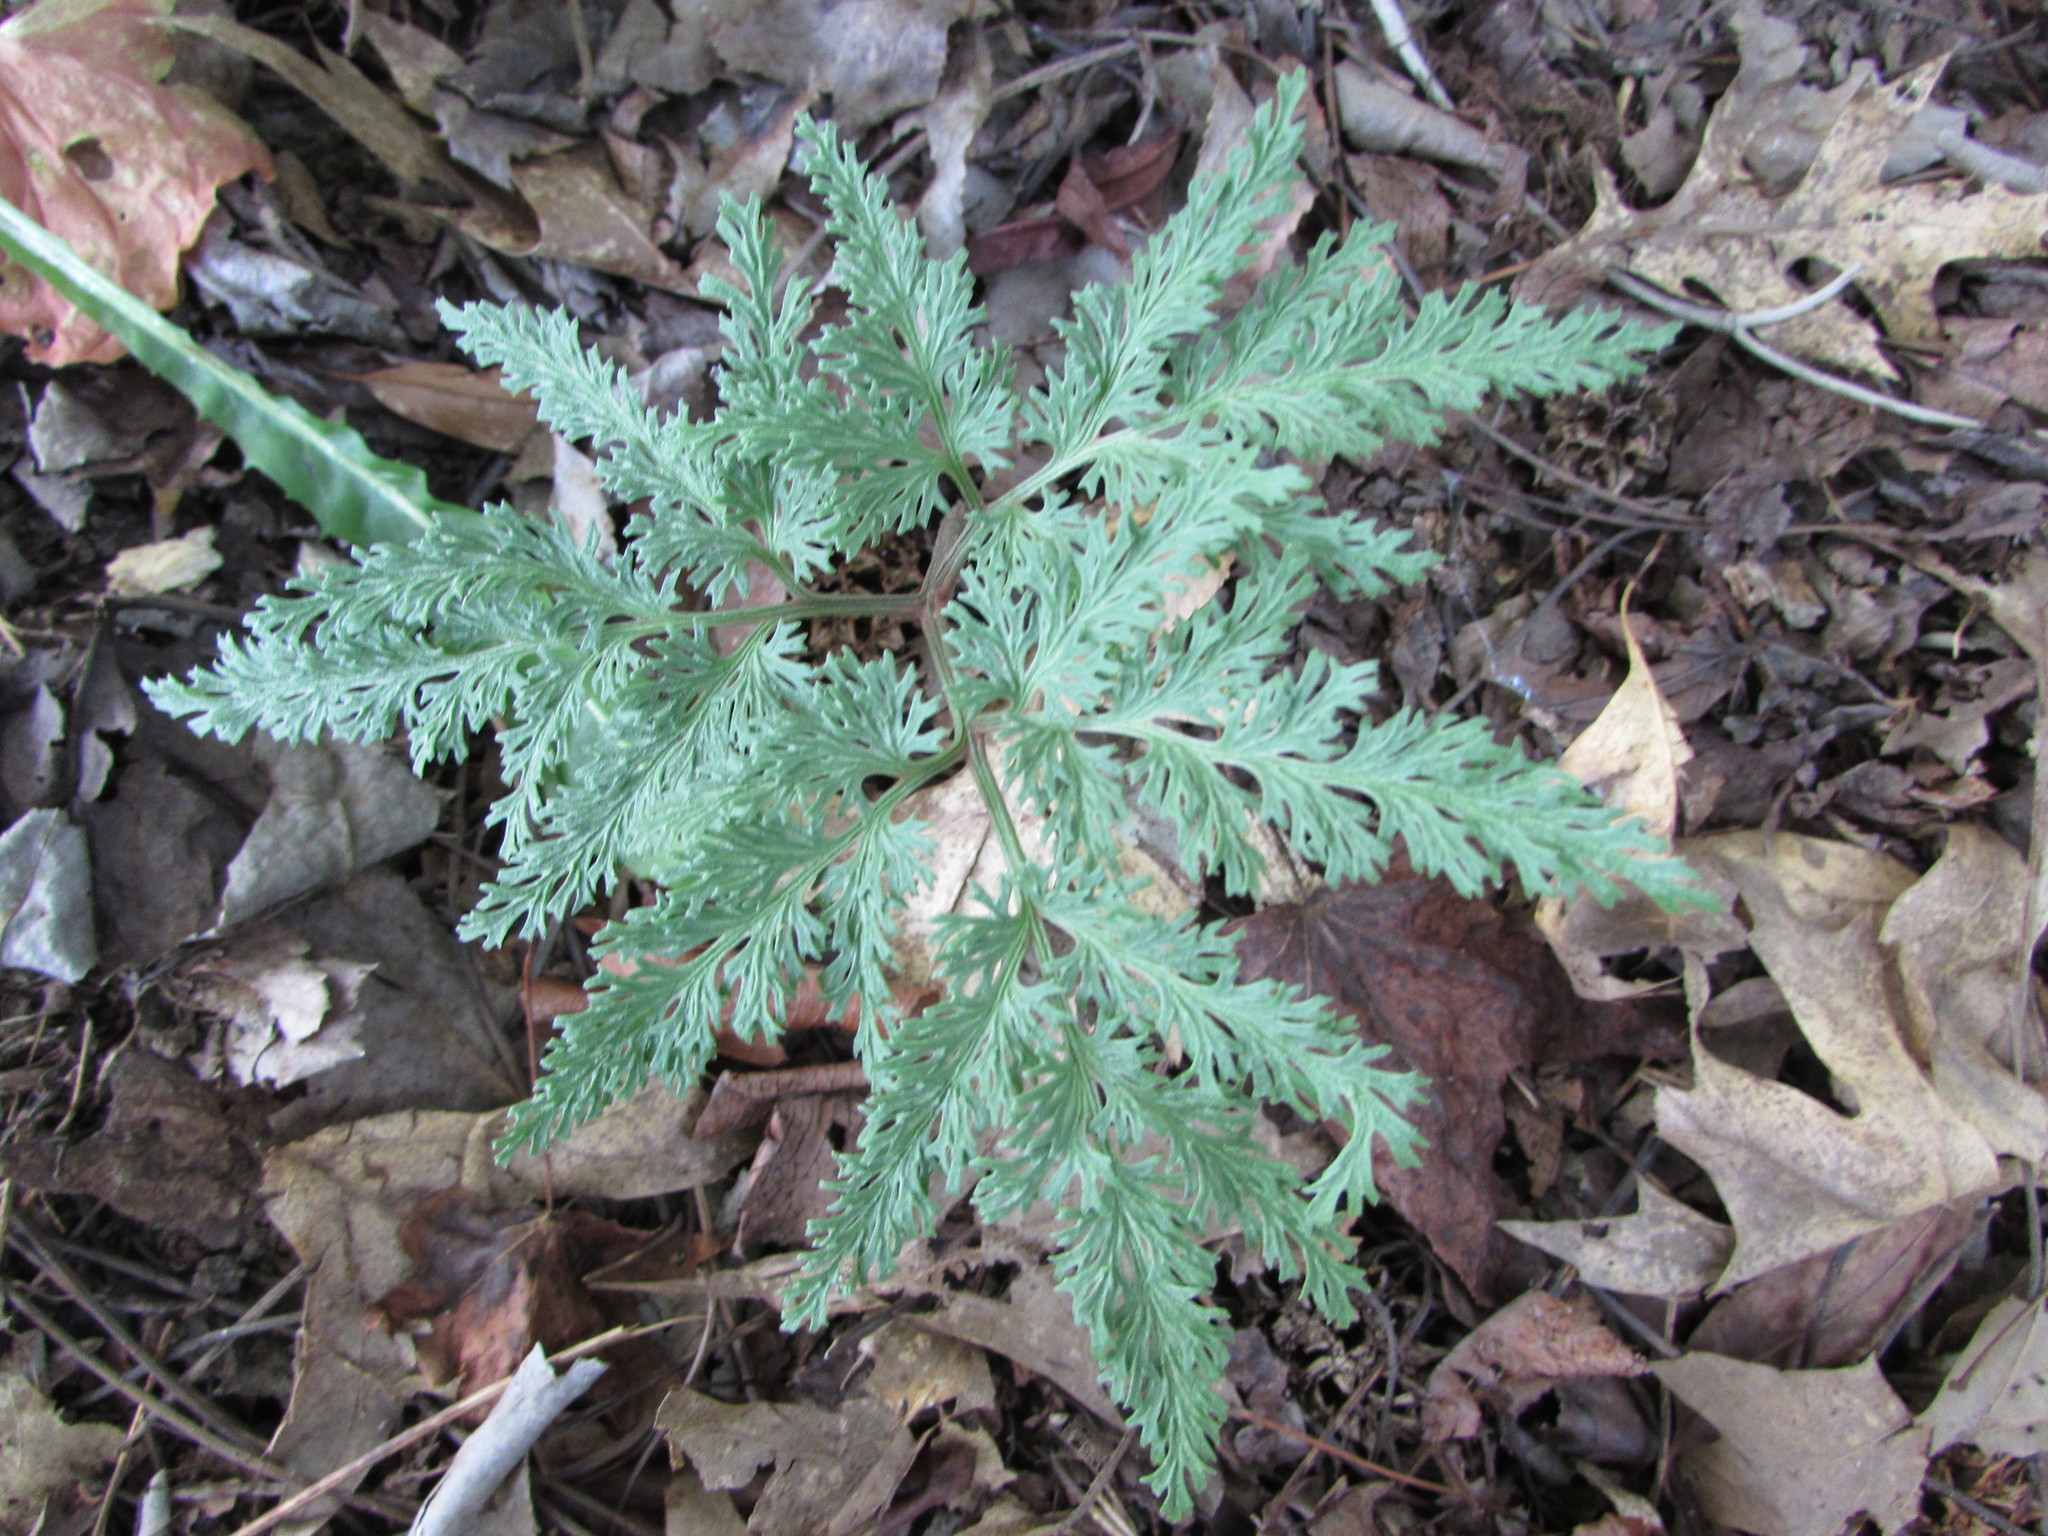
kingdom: Plantae
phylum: Tracheophyta
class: Polypodiopsida
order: Ophioglossales
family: Ophioglossaceae
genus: Sceptridium
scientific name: Sceptridium dissectum
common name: Cut-leaved grapefern
